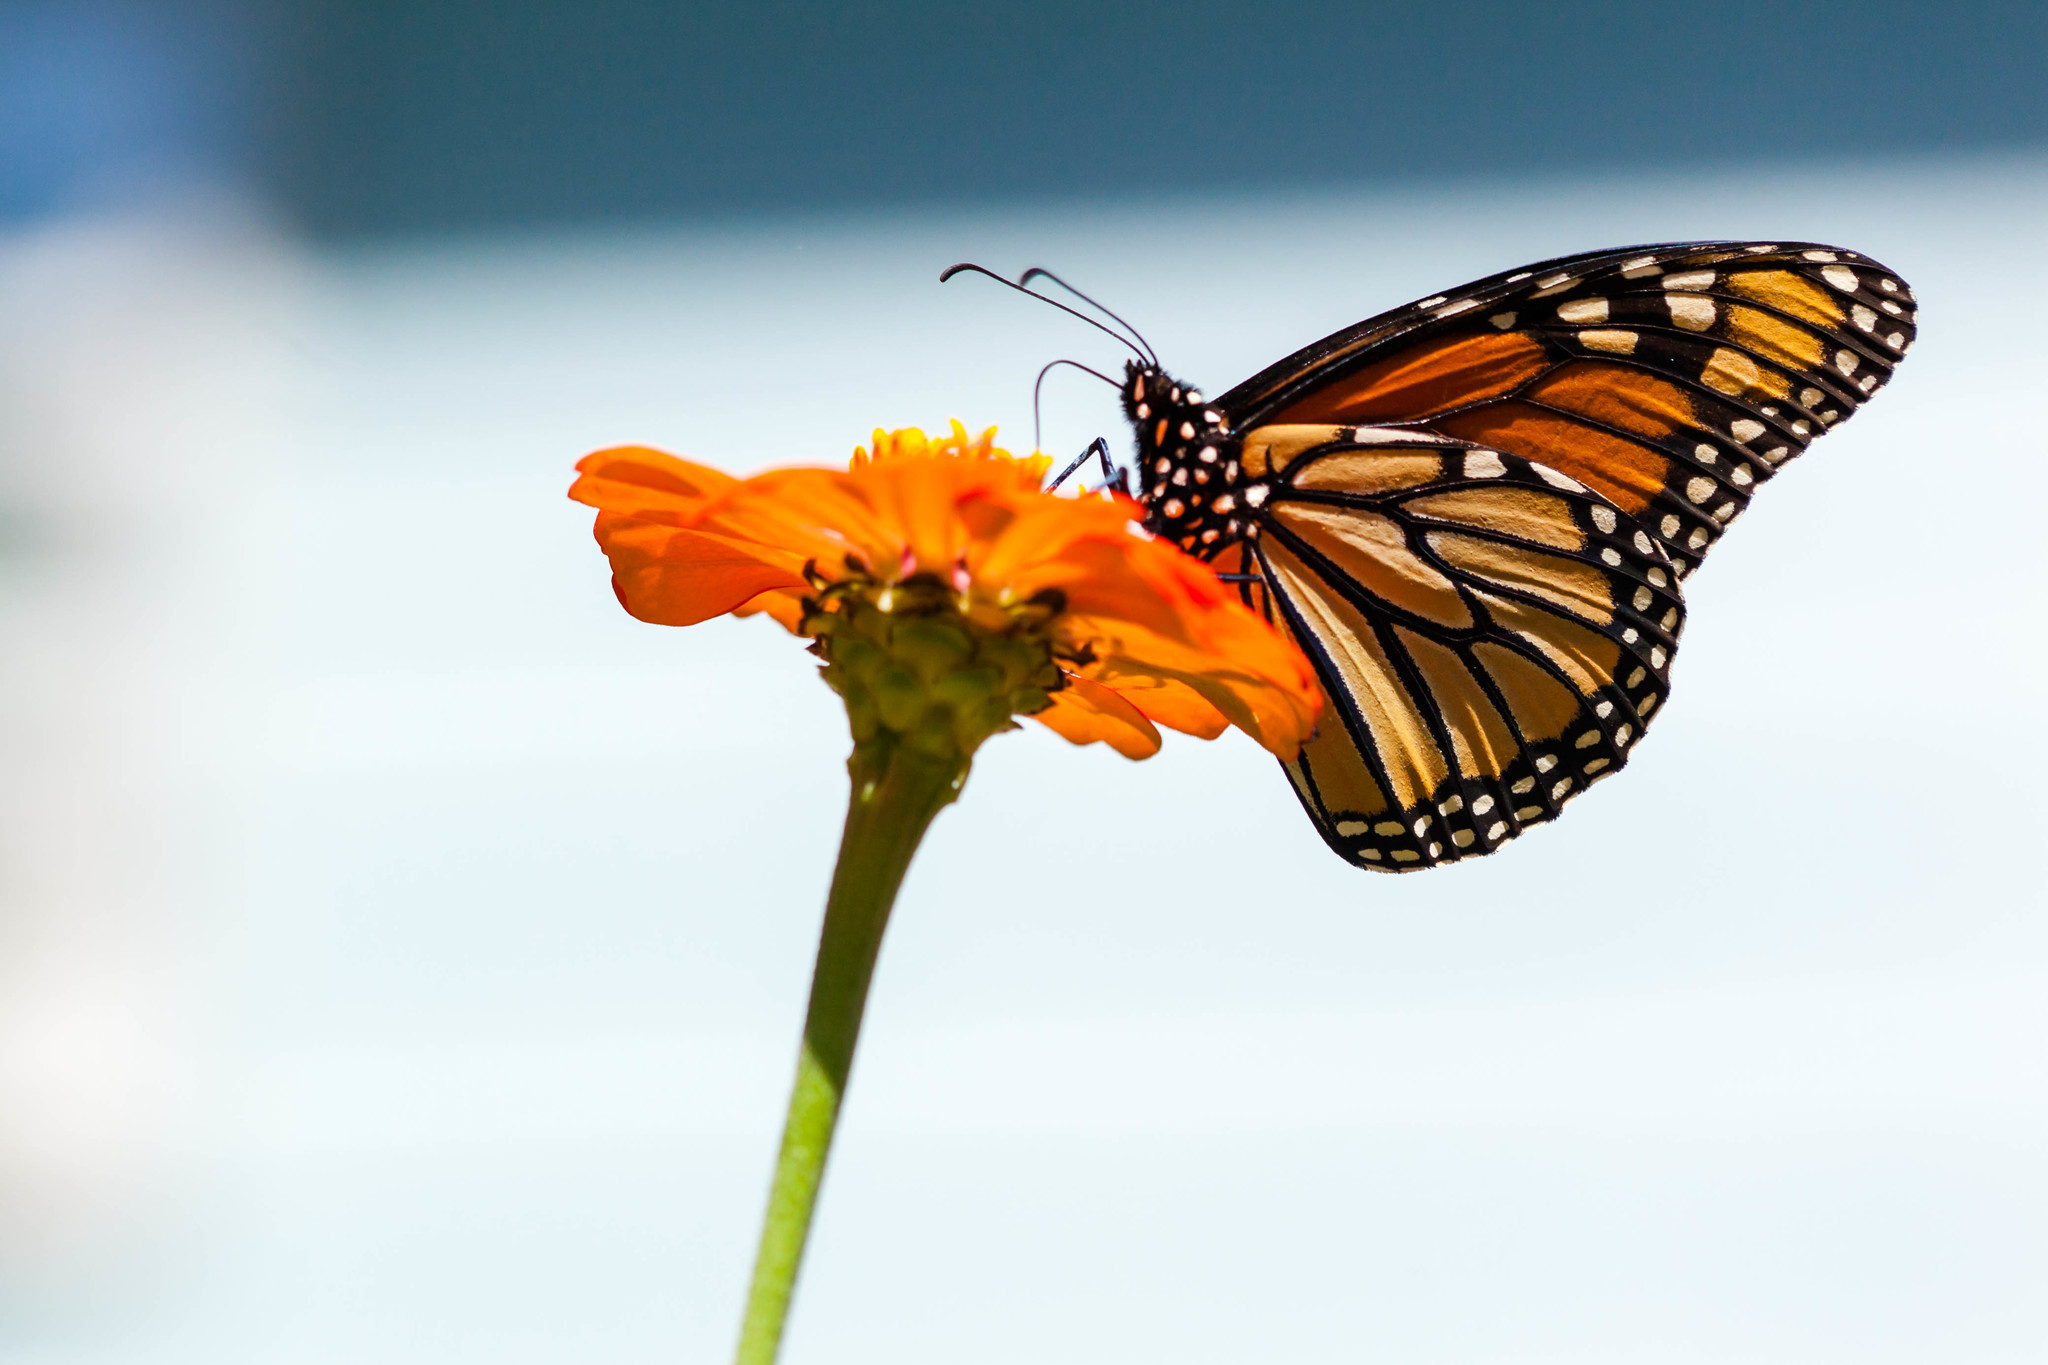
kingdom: Animalia
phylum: Arthropoda
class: Insecta
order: Lepidoptera
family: Nymphalidae
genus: Danaus
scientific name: Danaus plexippus
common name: Monarch
